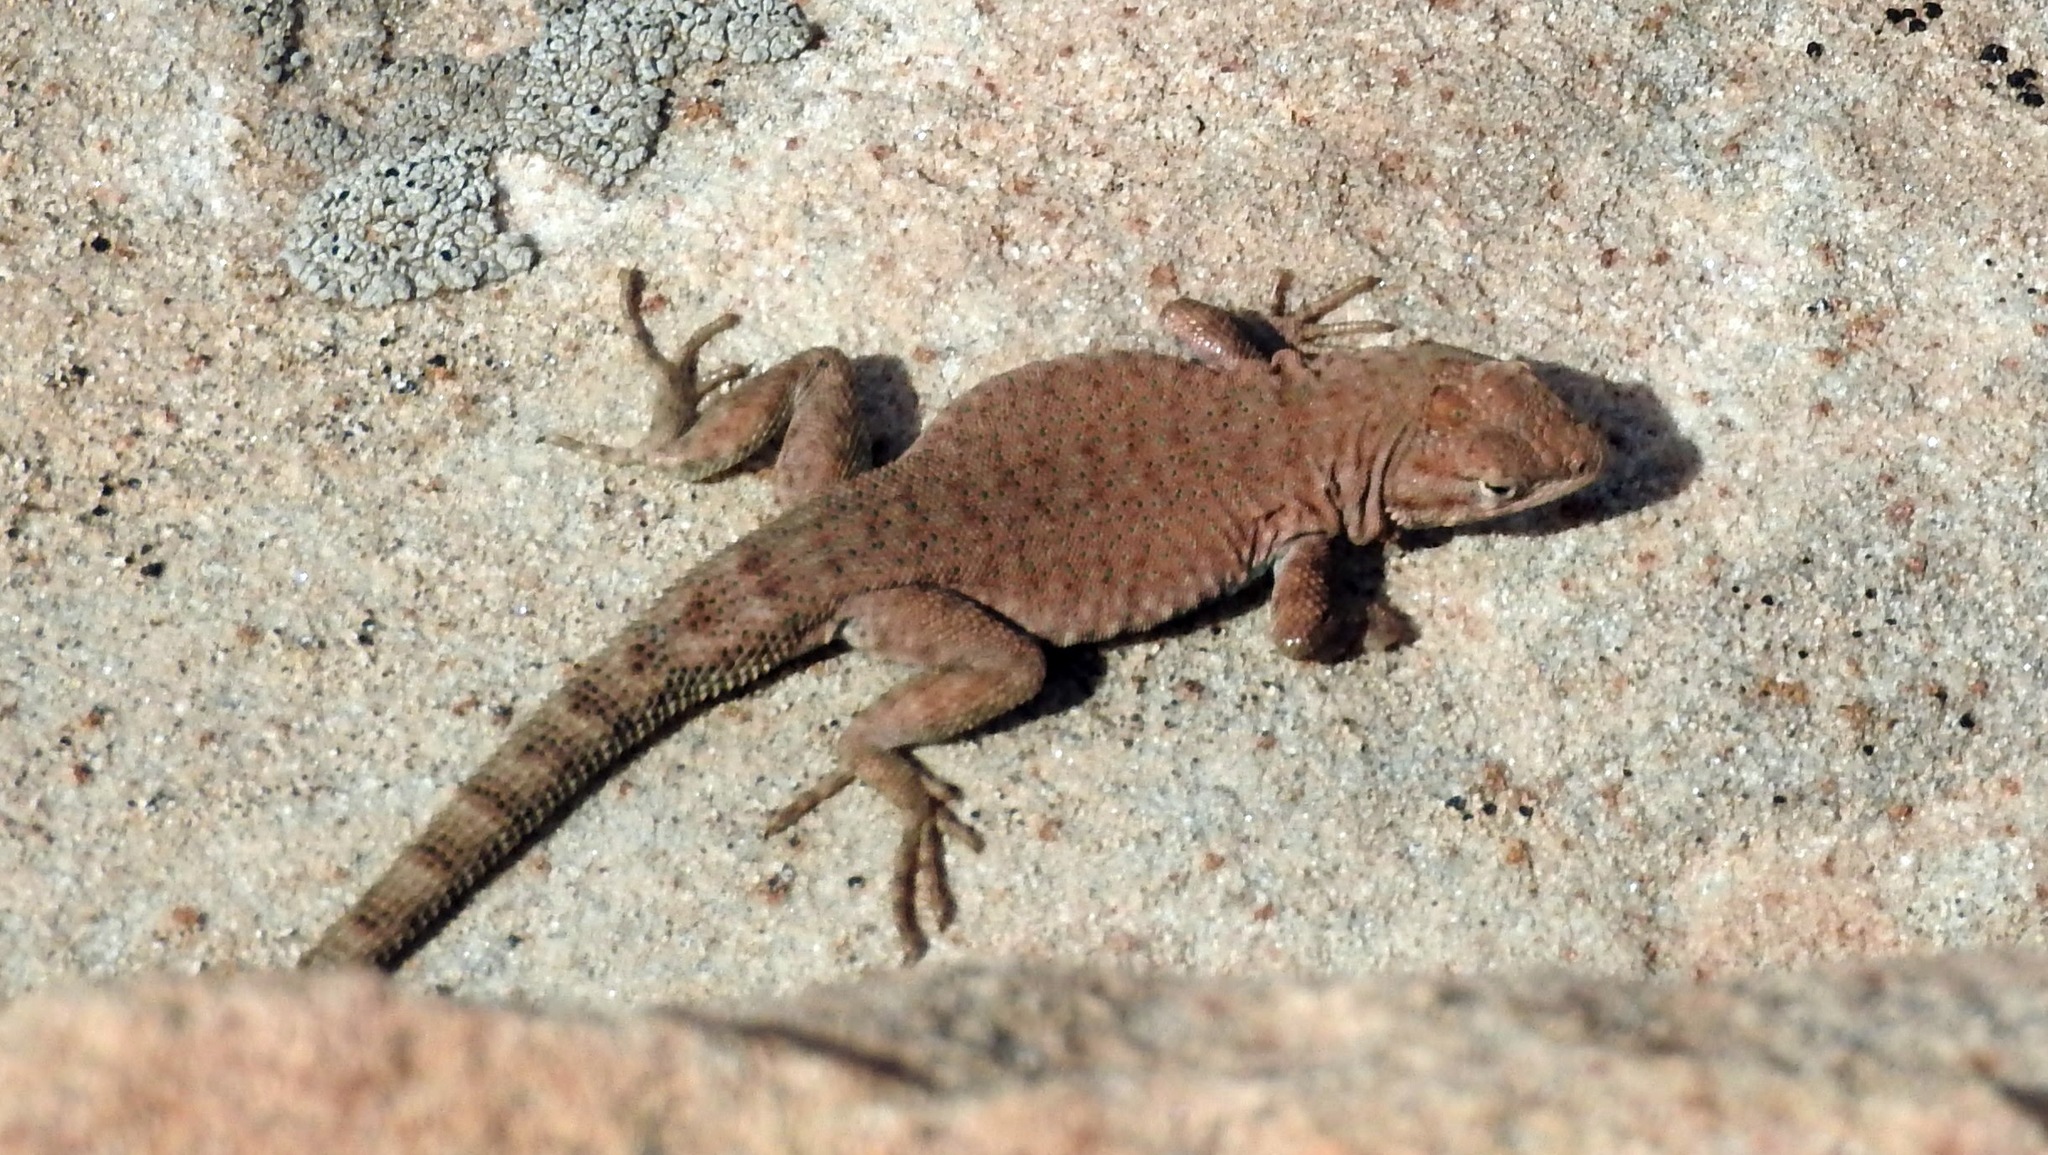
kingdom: Animalia
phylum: Chordata
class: Squamata
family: Phrynosomatidae
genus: Uta
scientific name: Uta stansburiana
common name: Side-blotched lizard
